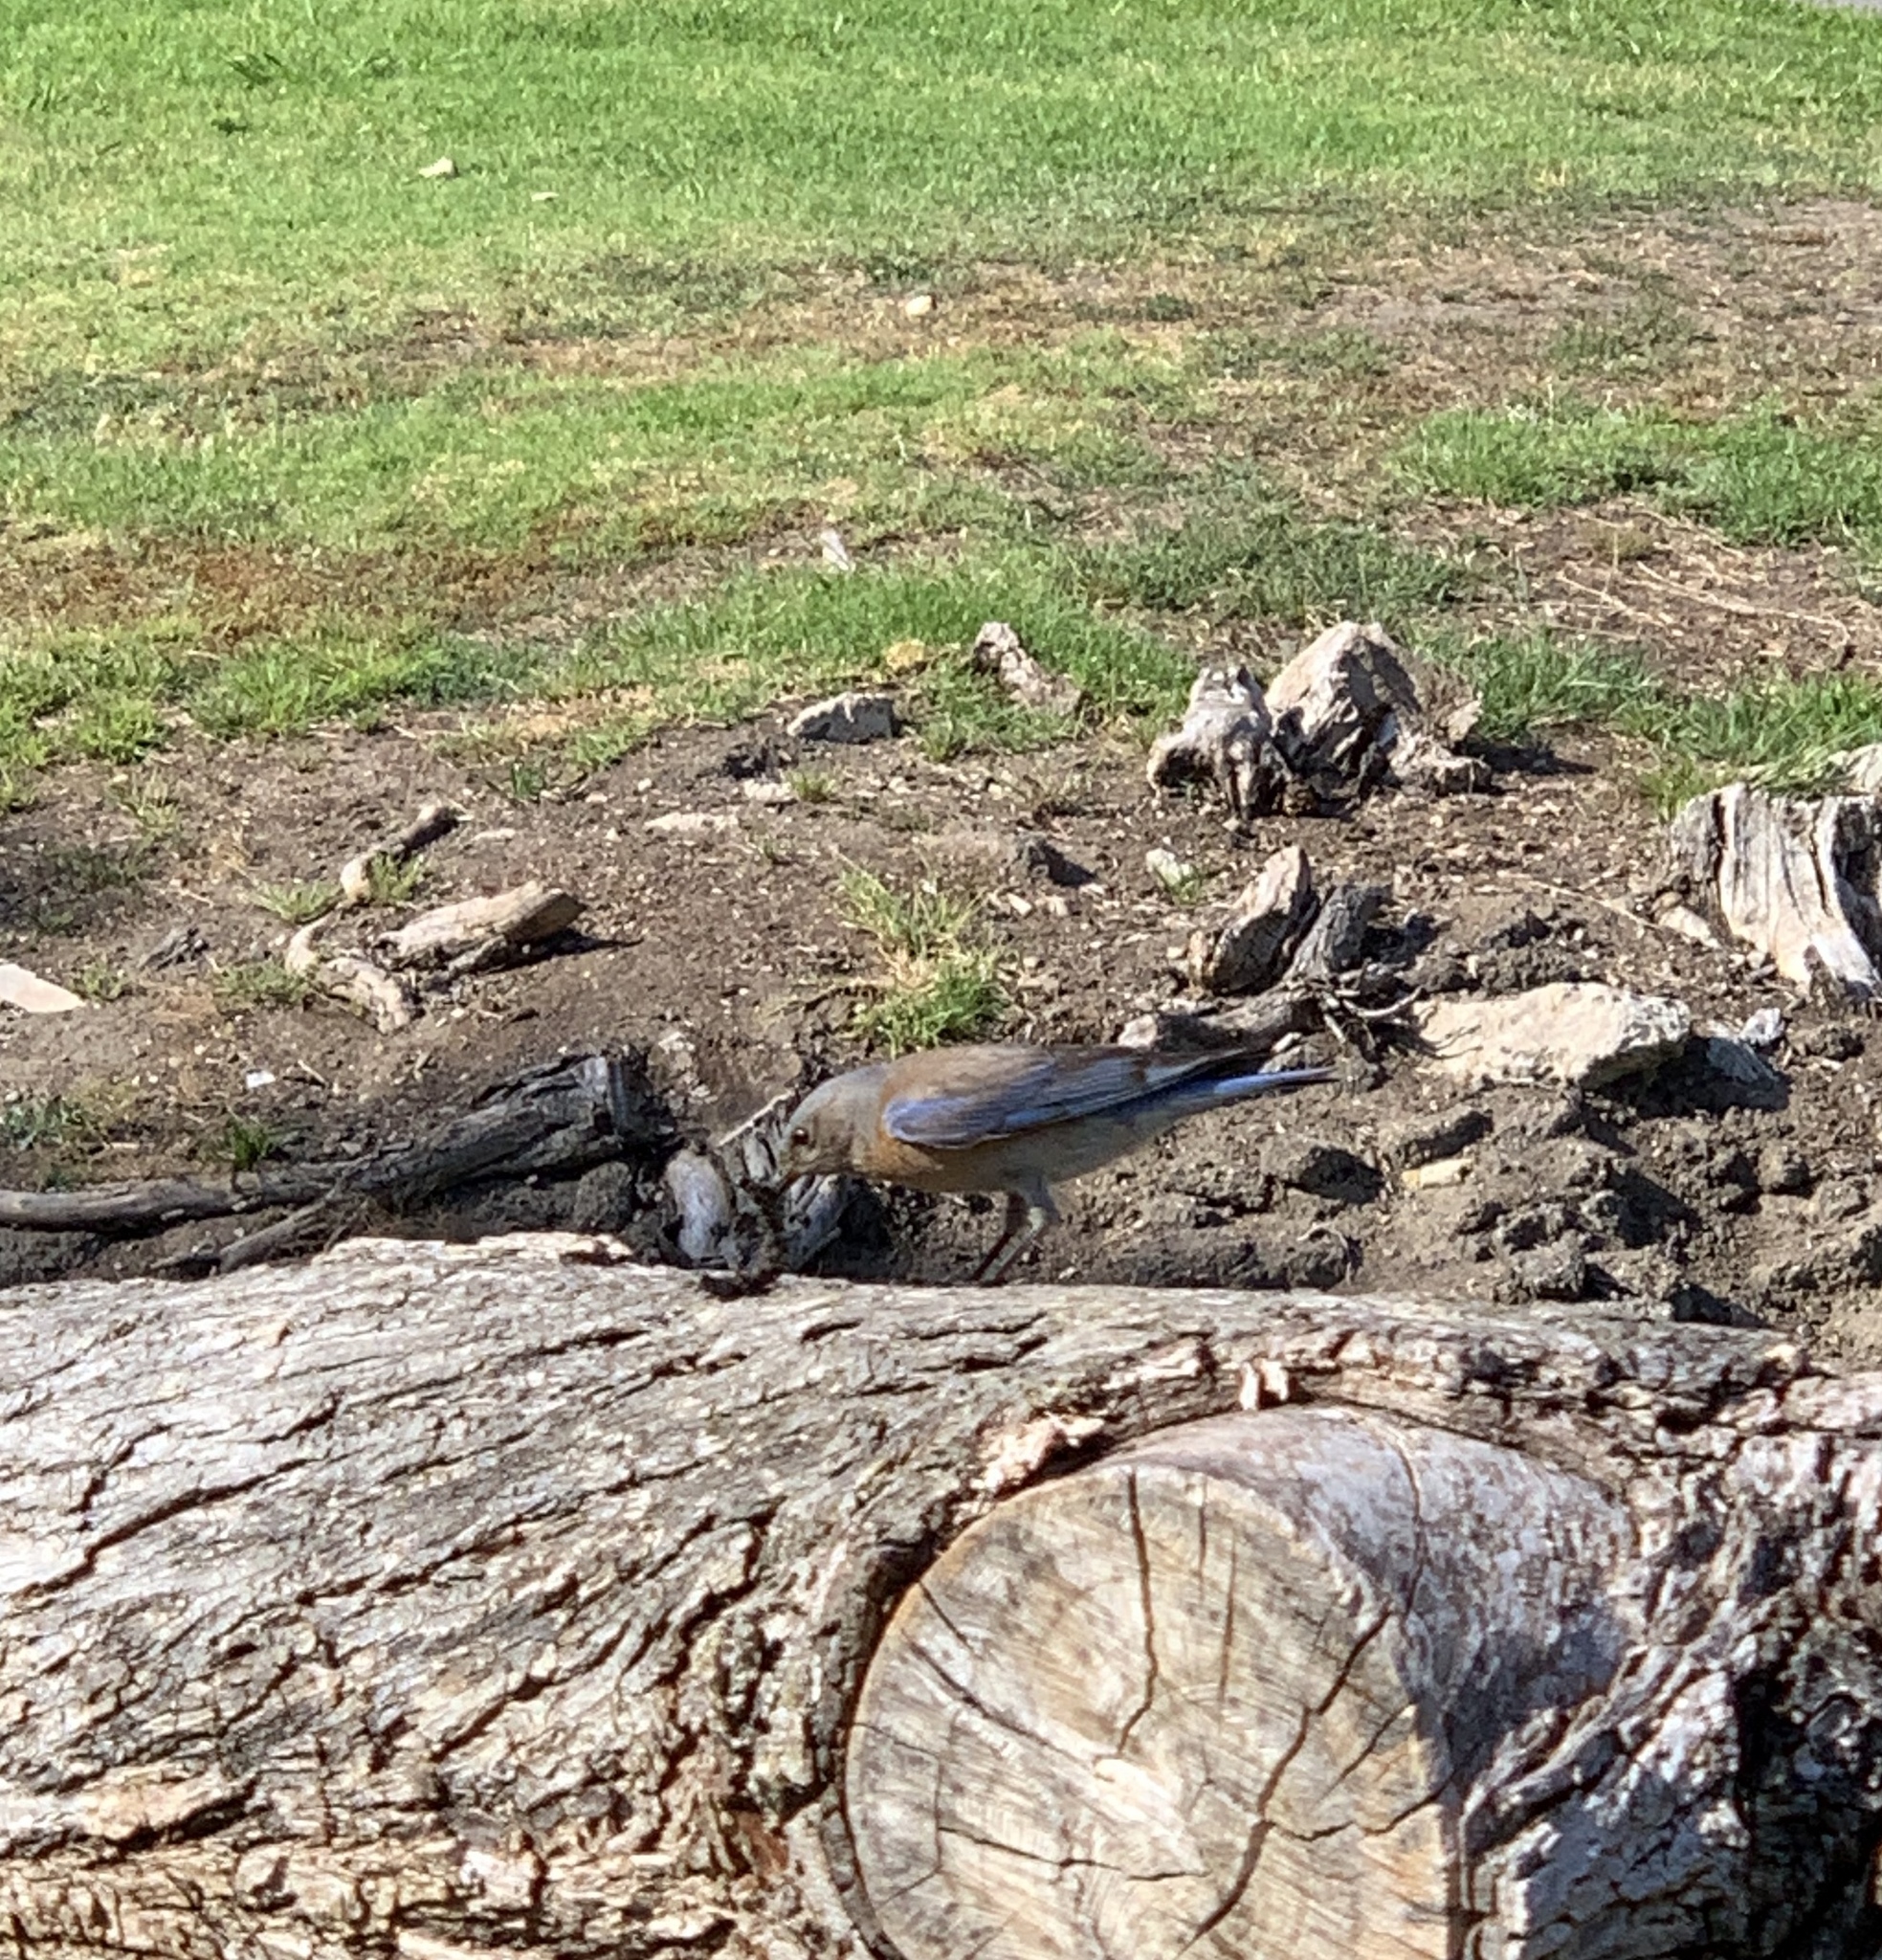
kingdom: Animalia
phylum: Chordata
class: Aves
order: Passeriformes
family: Turdidae
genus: Sialia
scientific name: Sialia mexicana
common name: Western bluebird
